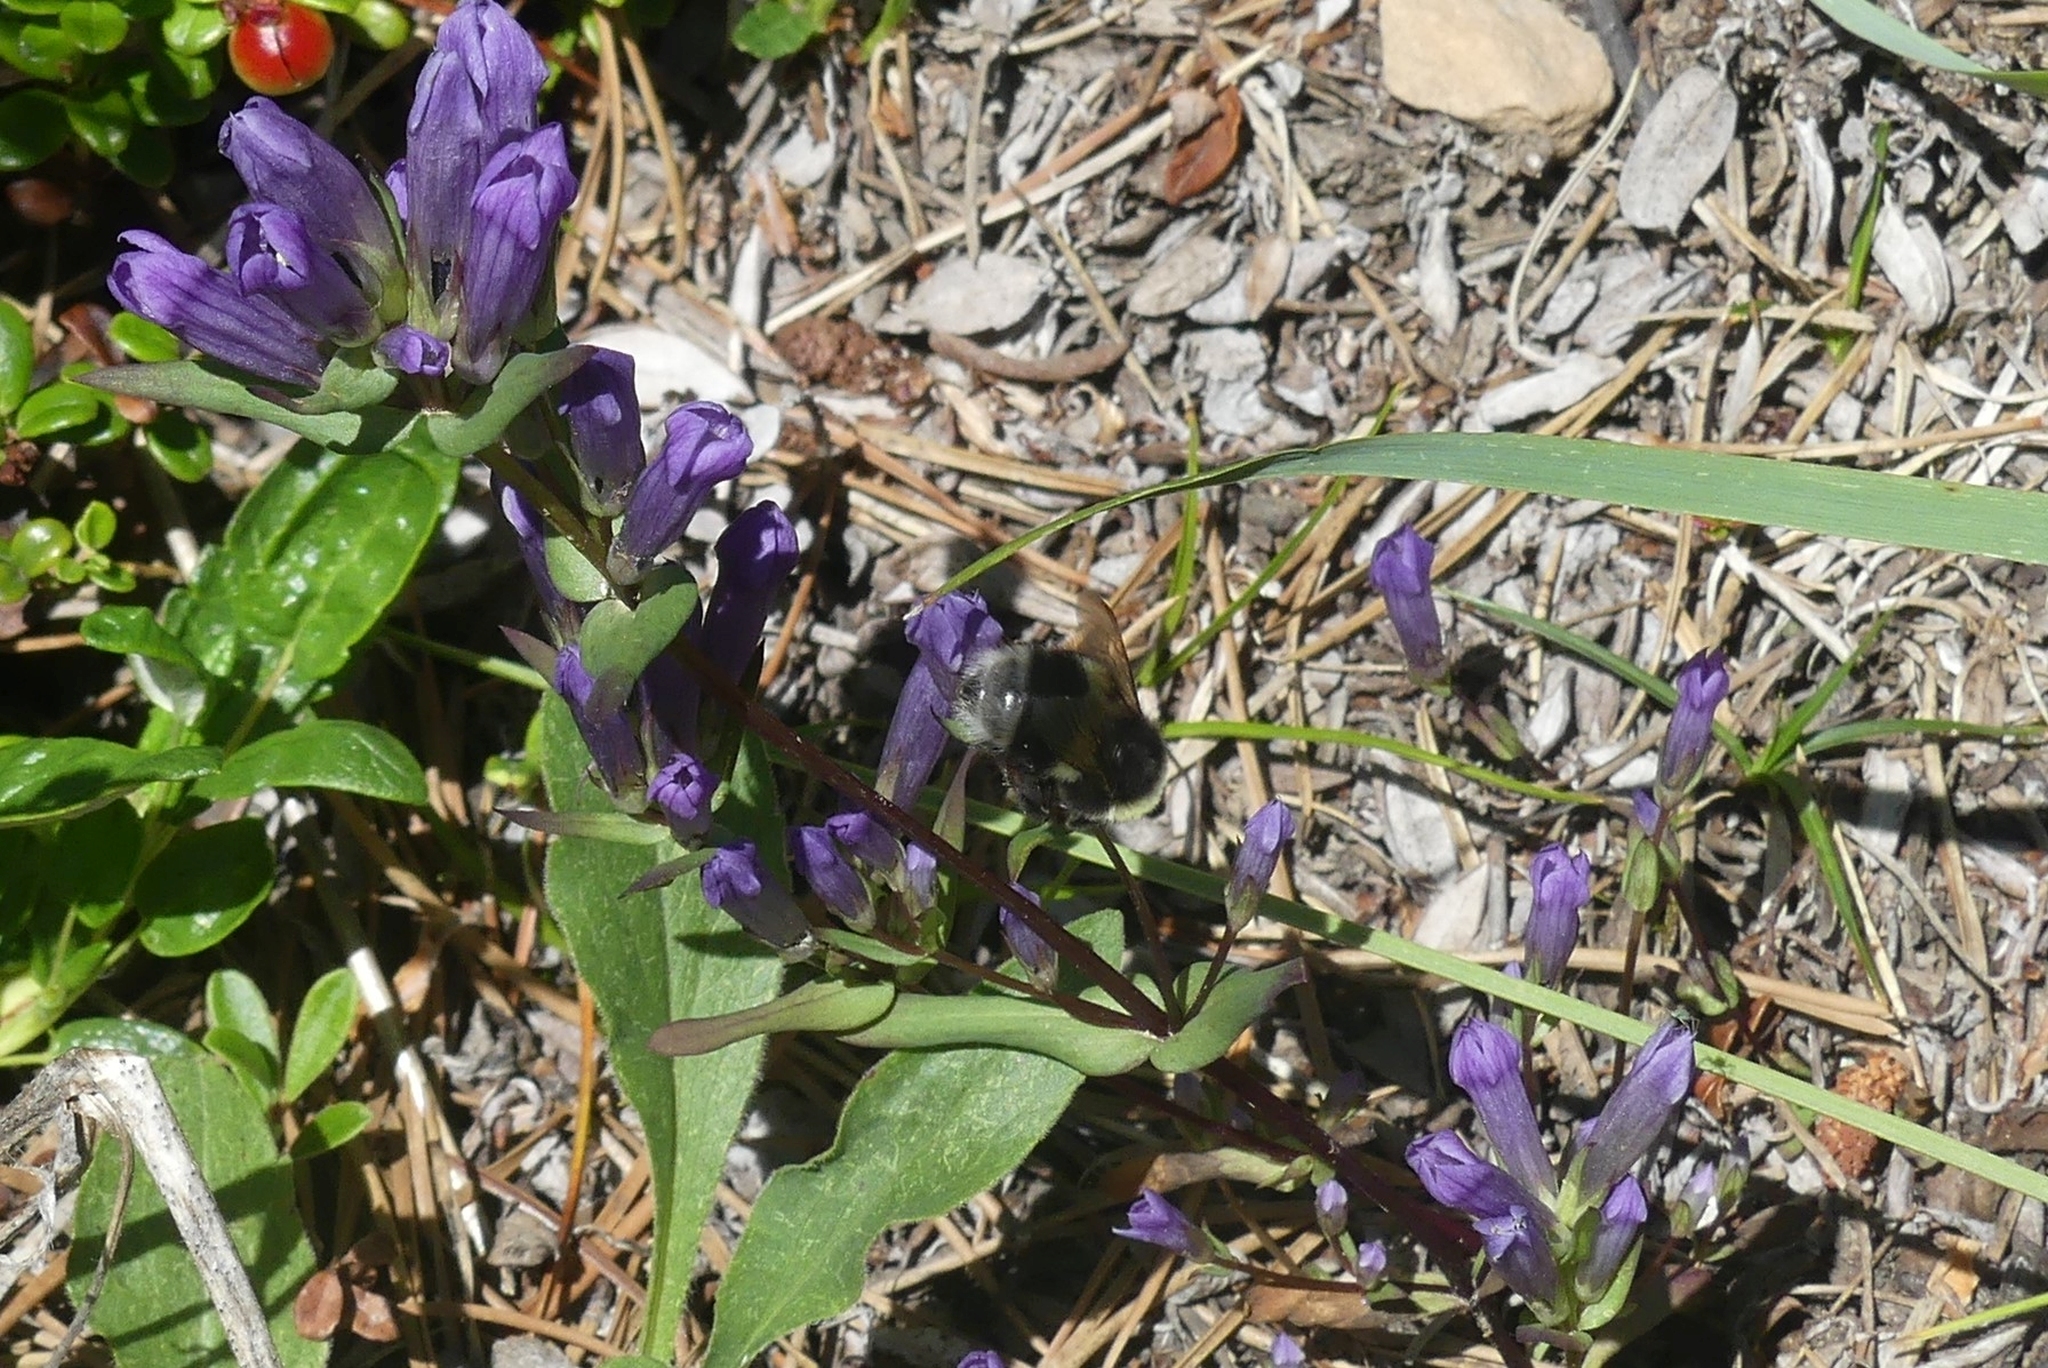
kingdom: Animalia
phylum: Arthropoda
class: Insecta
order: Hymenoptera
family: Apidae
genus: Bombus
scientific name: Bombus cryptarum
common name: Cryptic bumblebee
